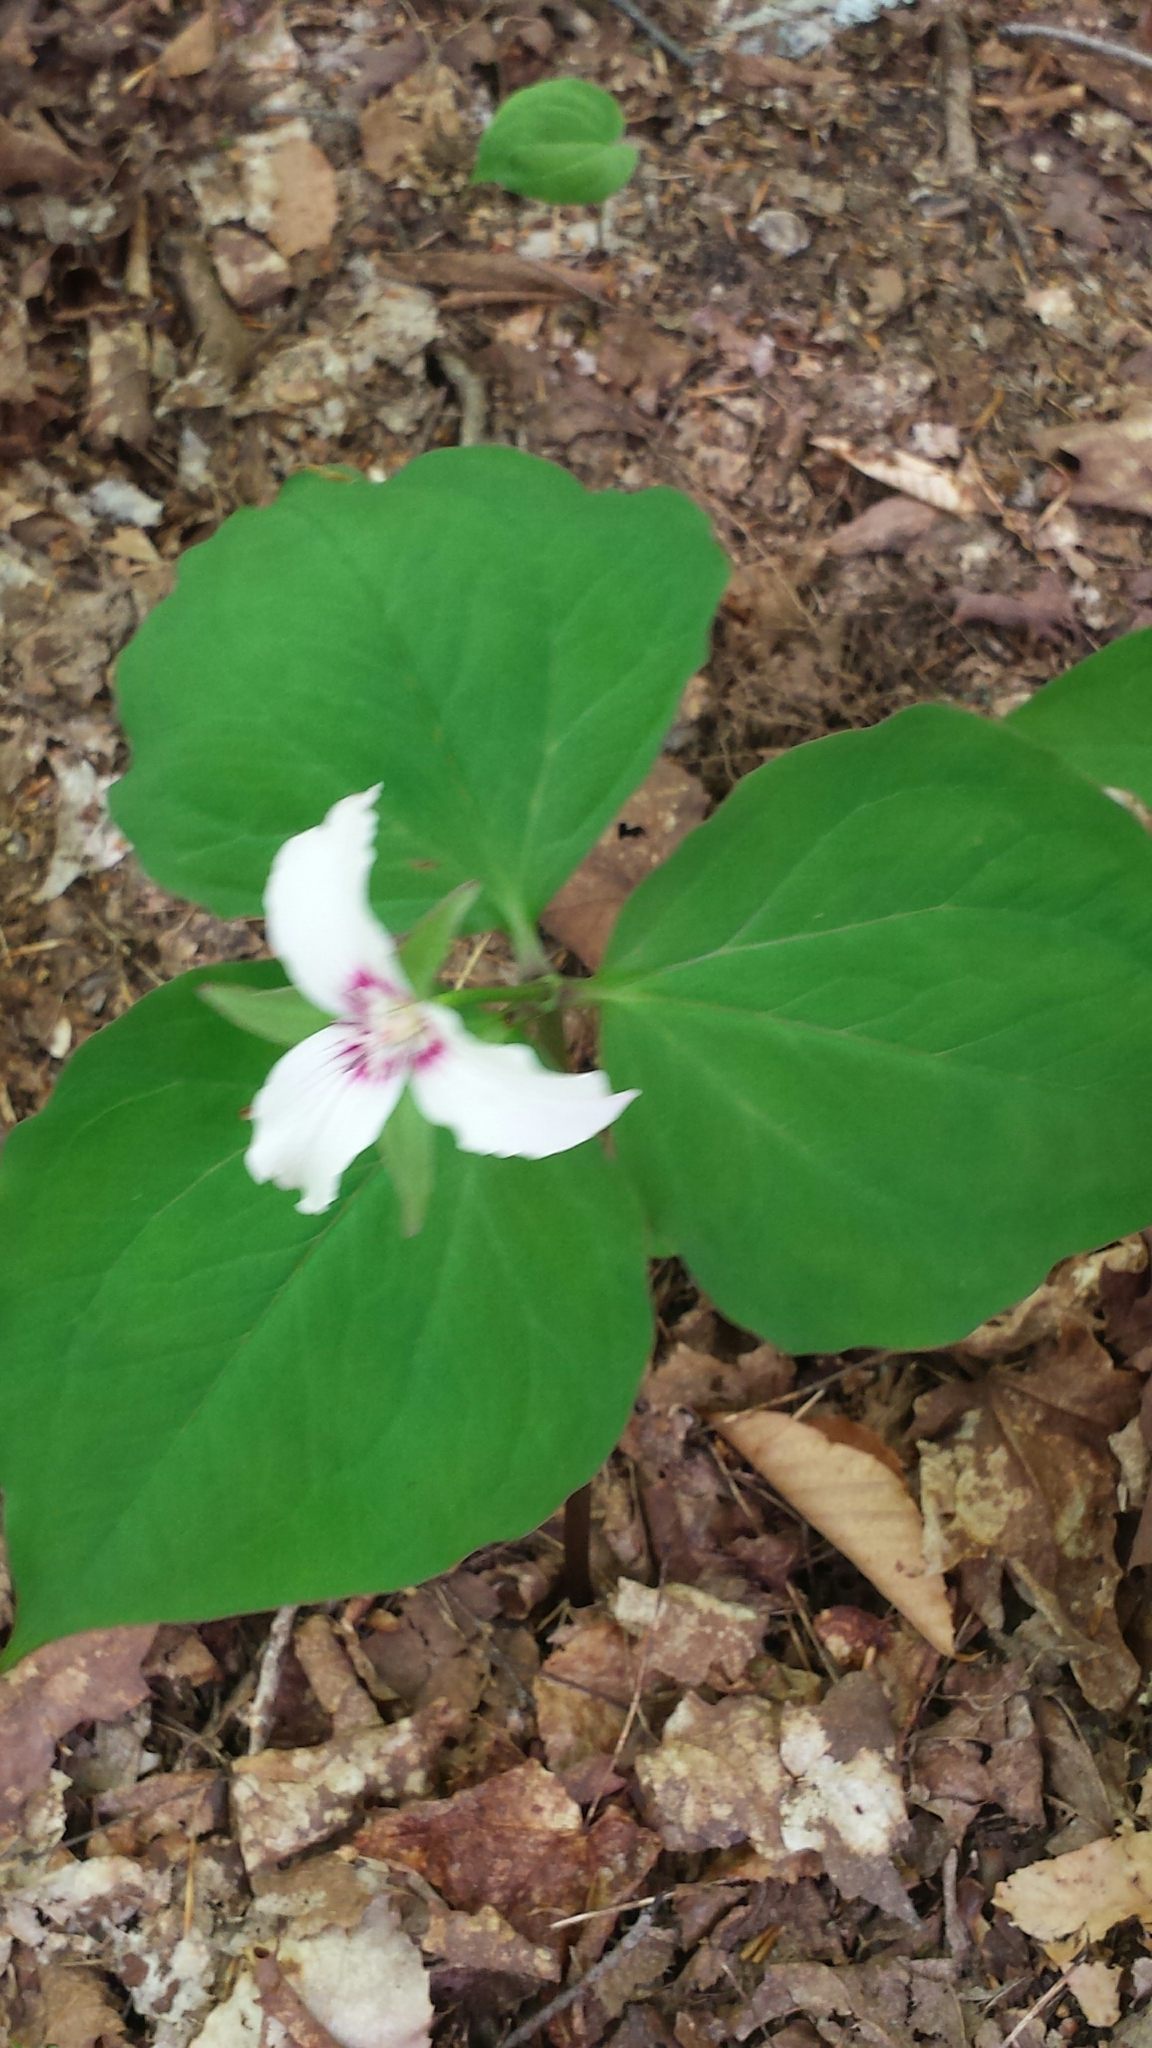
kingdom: Plantae
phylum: Tracheophyta
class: Liliopsida
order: Liliales
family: Melanthiaceae
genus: Trillium
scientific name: Trillium undulatum
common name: Paint trillium
